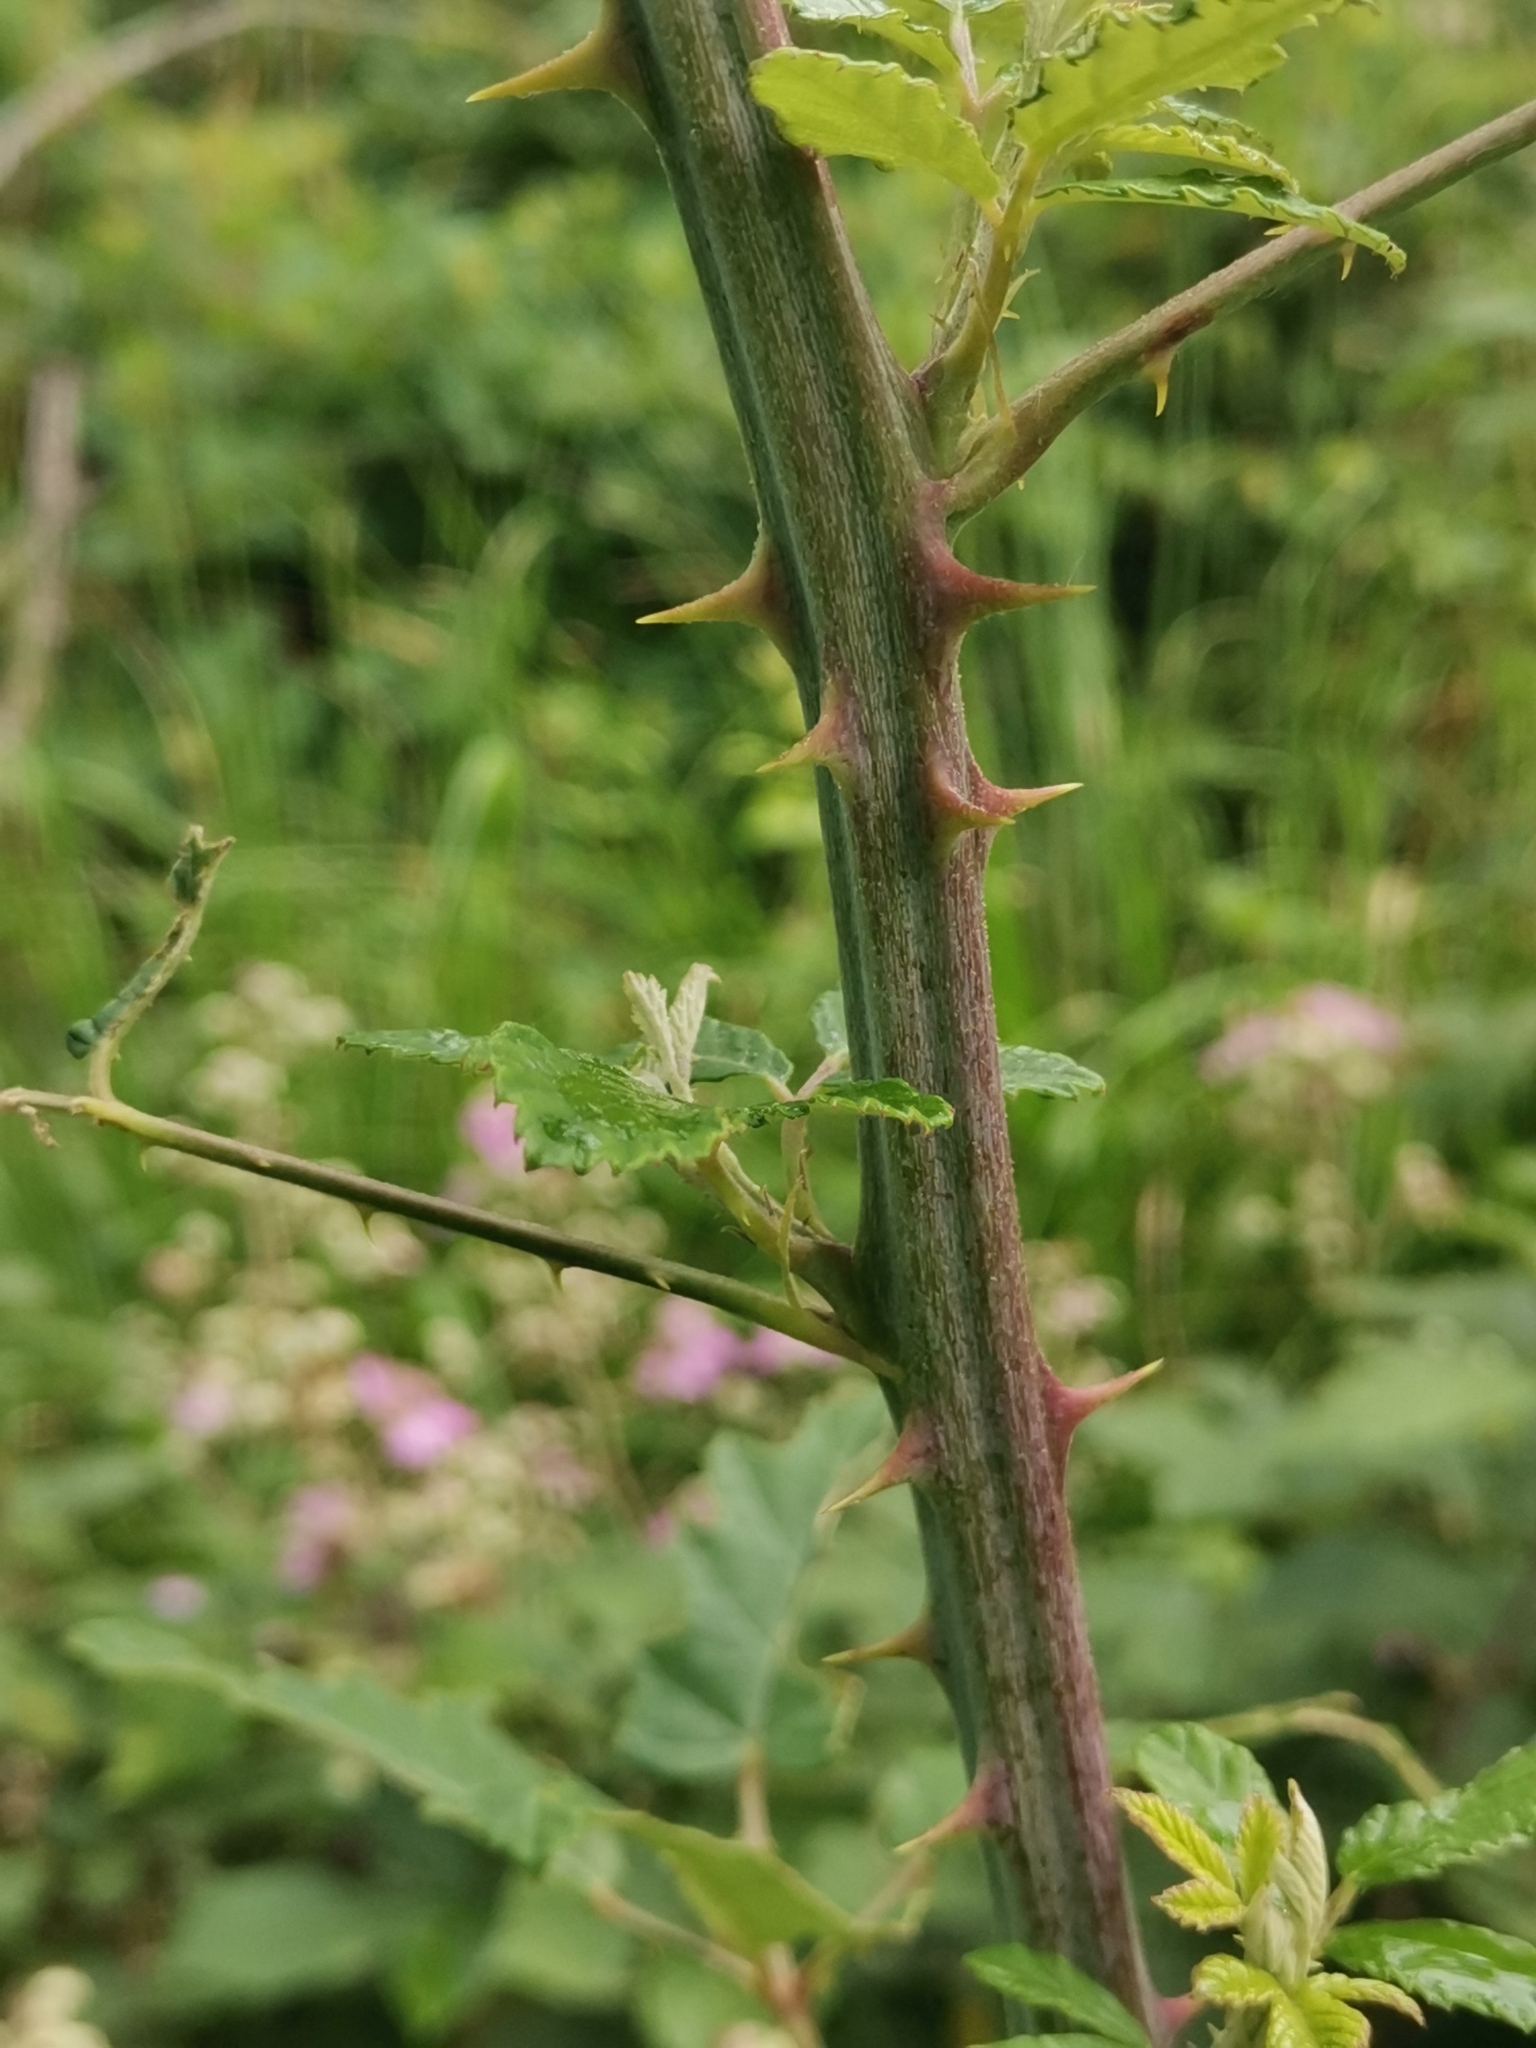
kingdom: Plantae
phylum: Tracheophyta
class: Magnoliopsida
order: Rosales
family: Rosaceae
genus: Rubus
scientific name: Rubus ulmifolius
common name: Elmleaf blackberry
